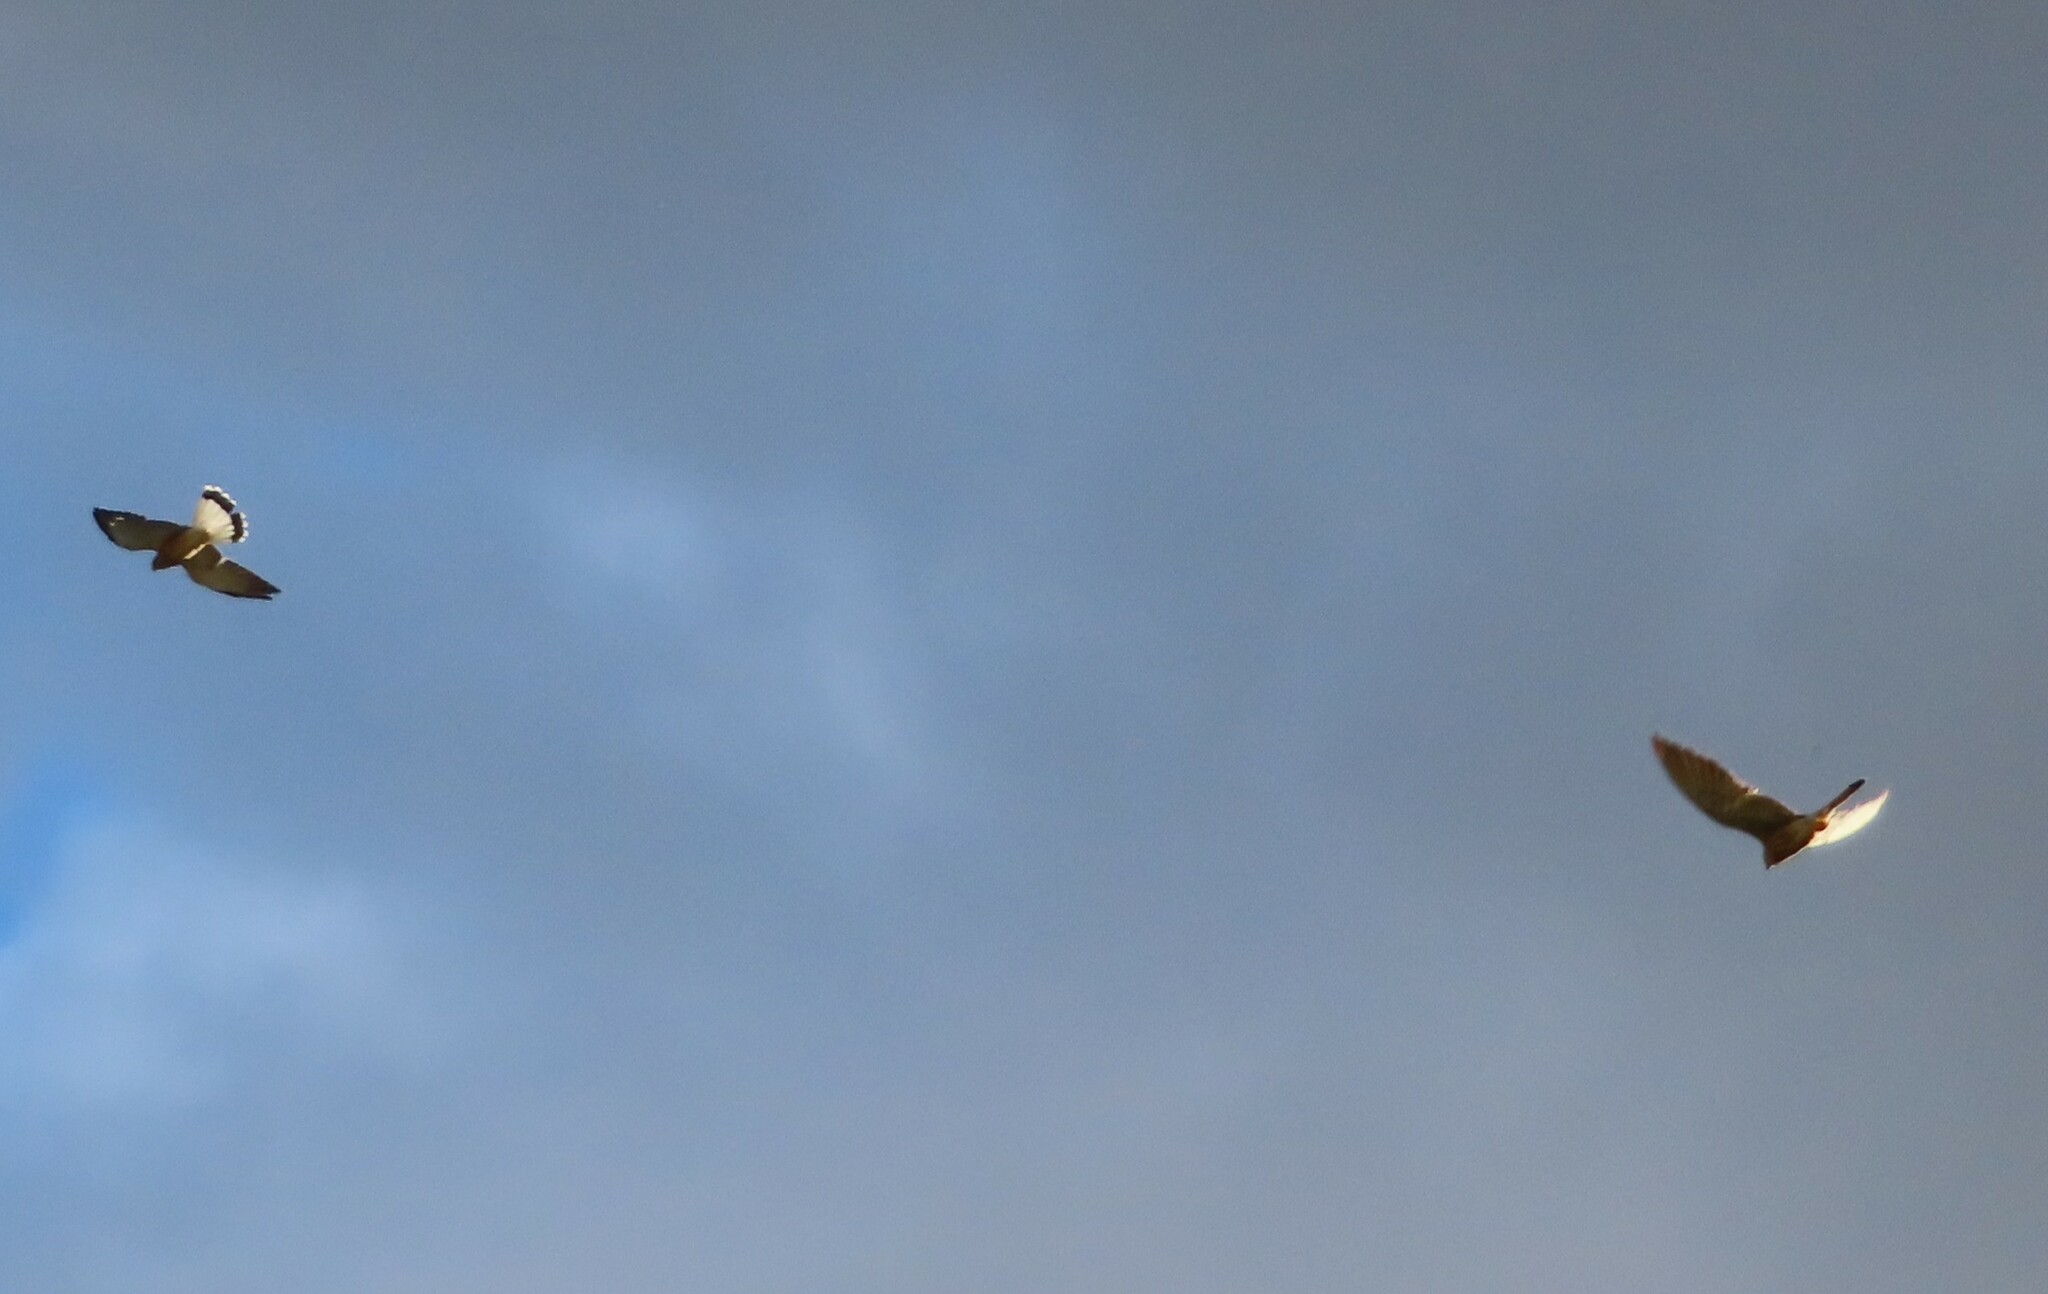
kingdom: Animalia
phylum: Chordata
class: Aves
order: Falconiformes
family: Falconidae
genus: Falco
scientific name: Falco naumanni
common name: Lesser kestrel
